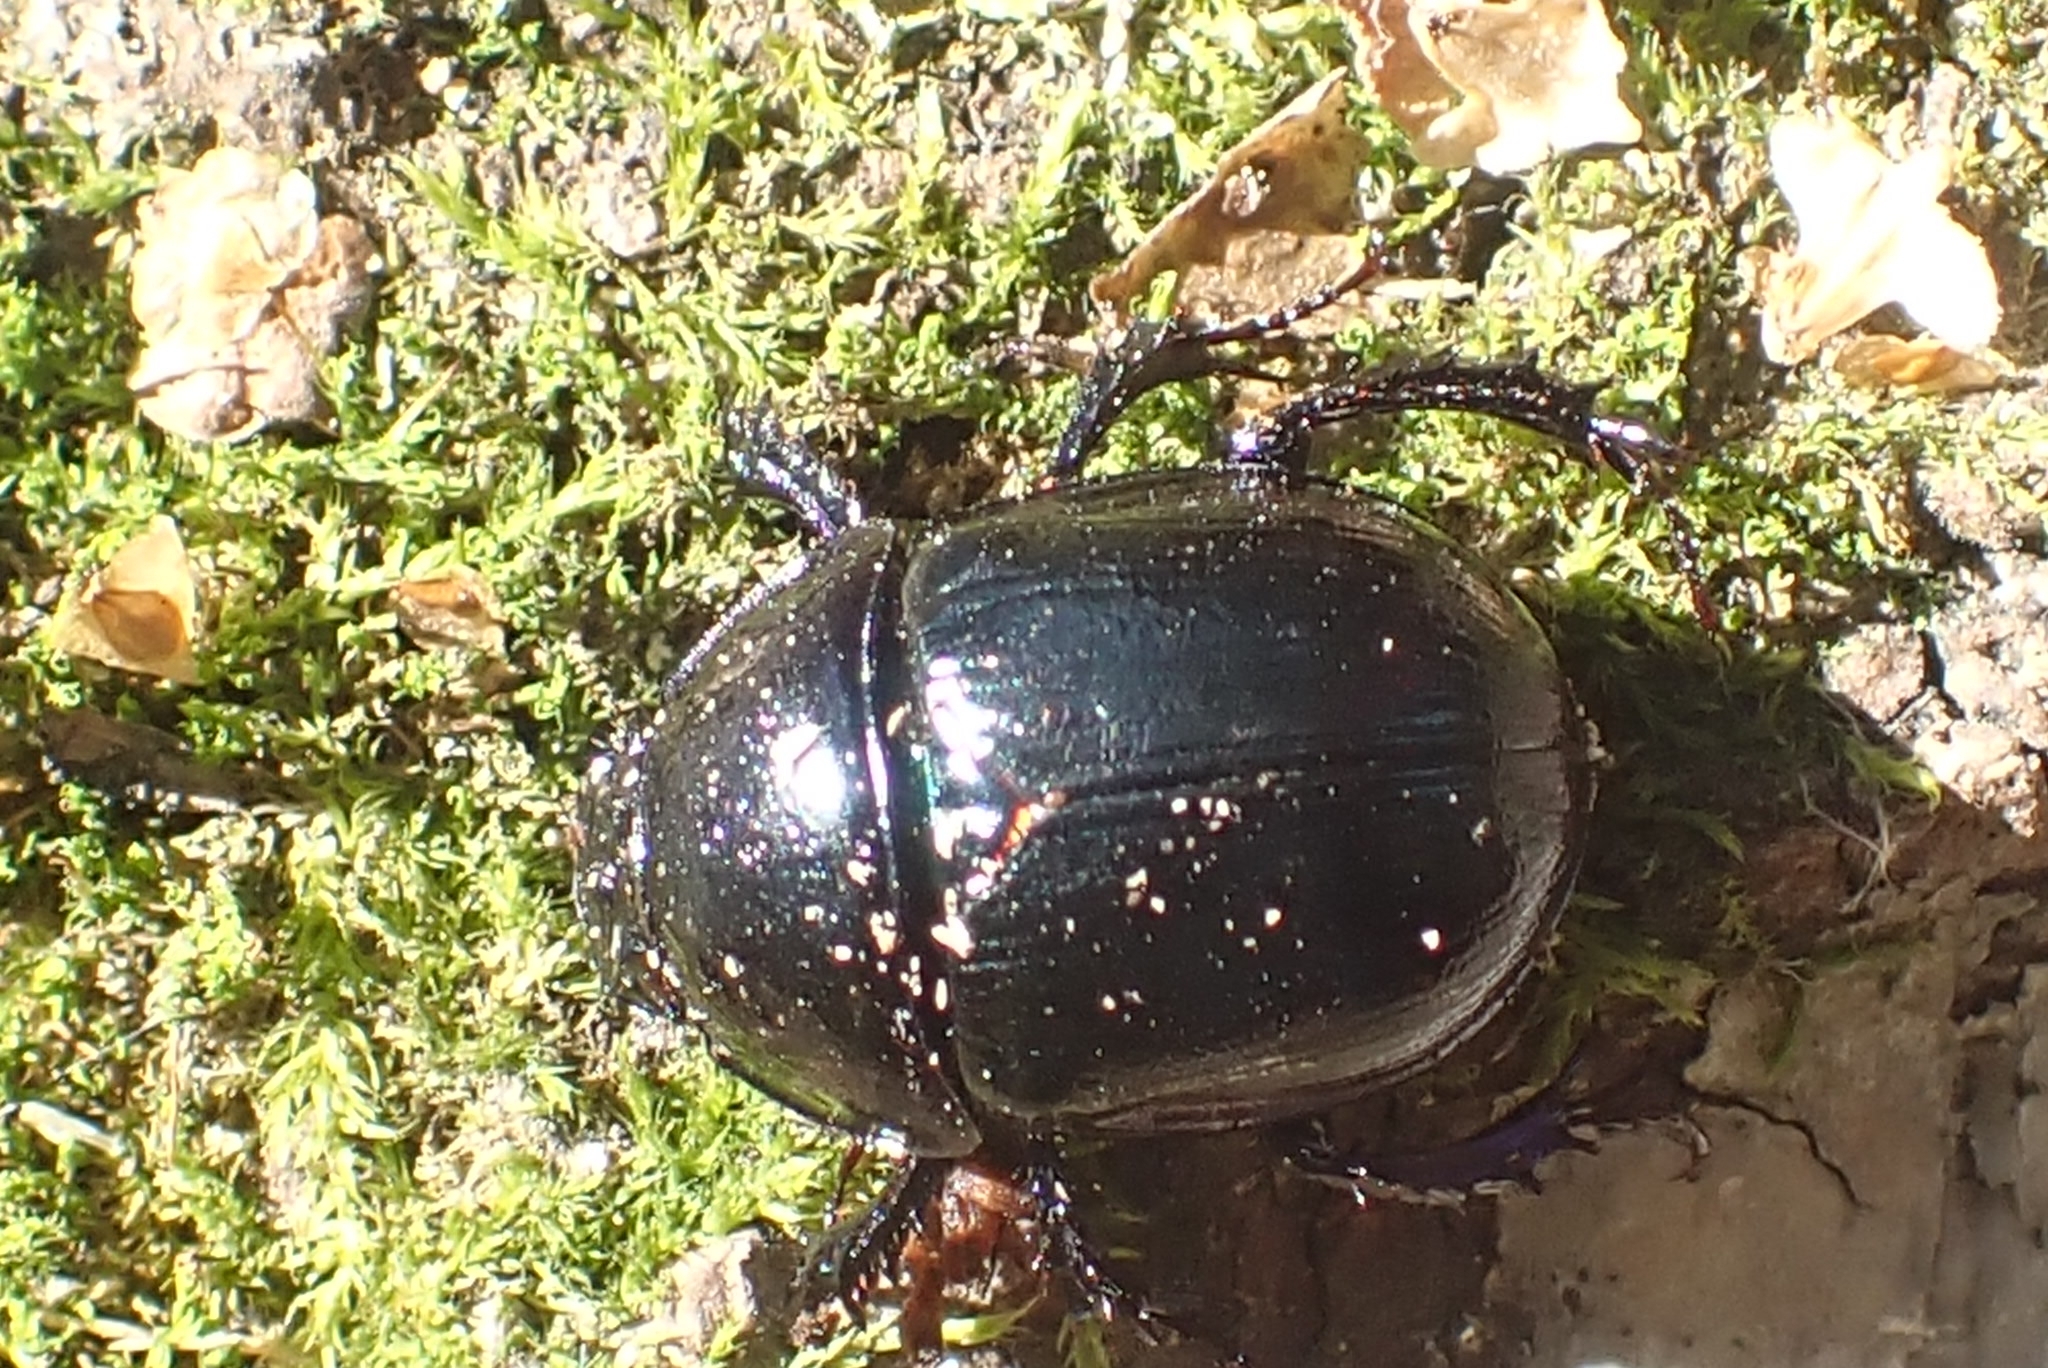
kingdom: Animalia
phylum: Arthropoda
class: Insecta
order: Coleoptera
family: Geotrupidae
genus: Anoplotrupes
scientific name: Anoplotrupes stercorosus
